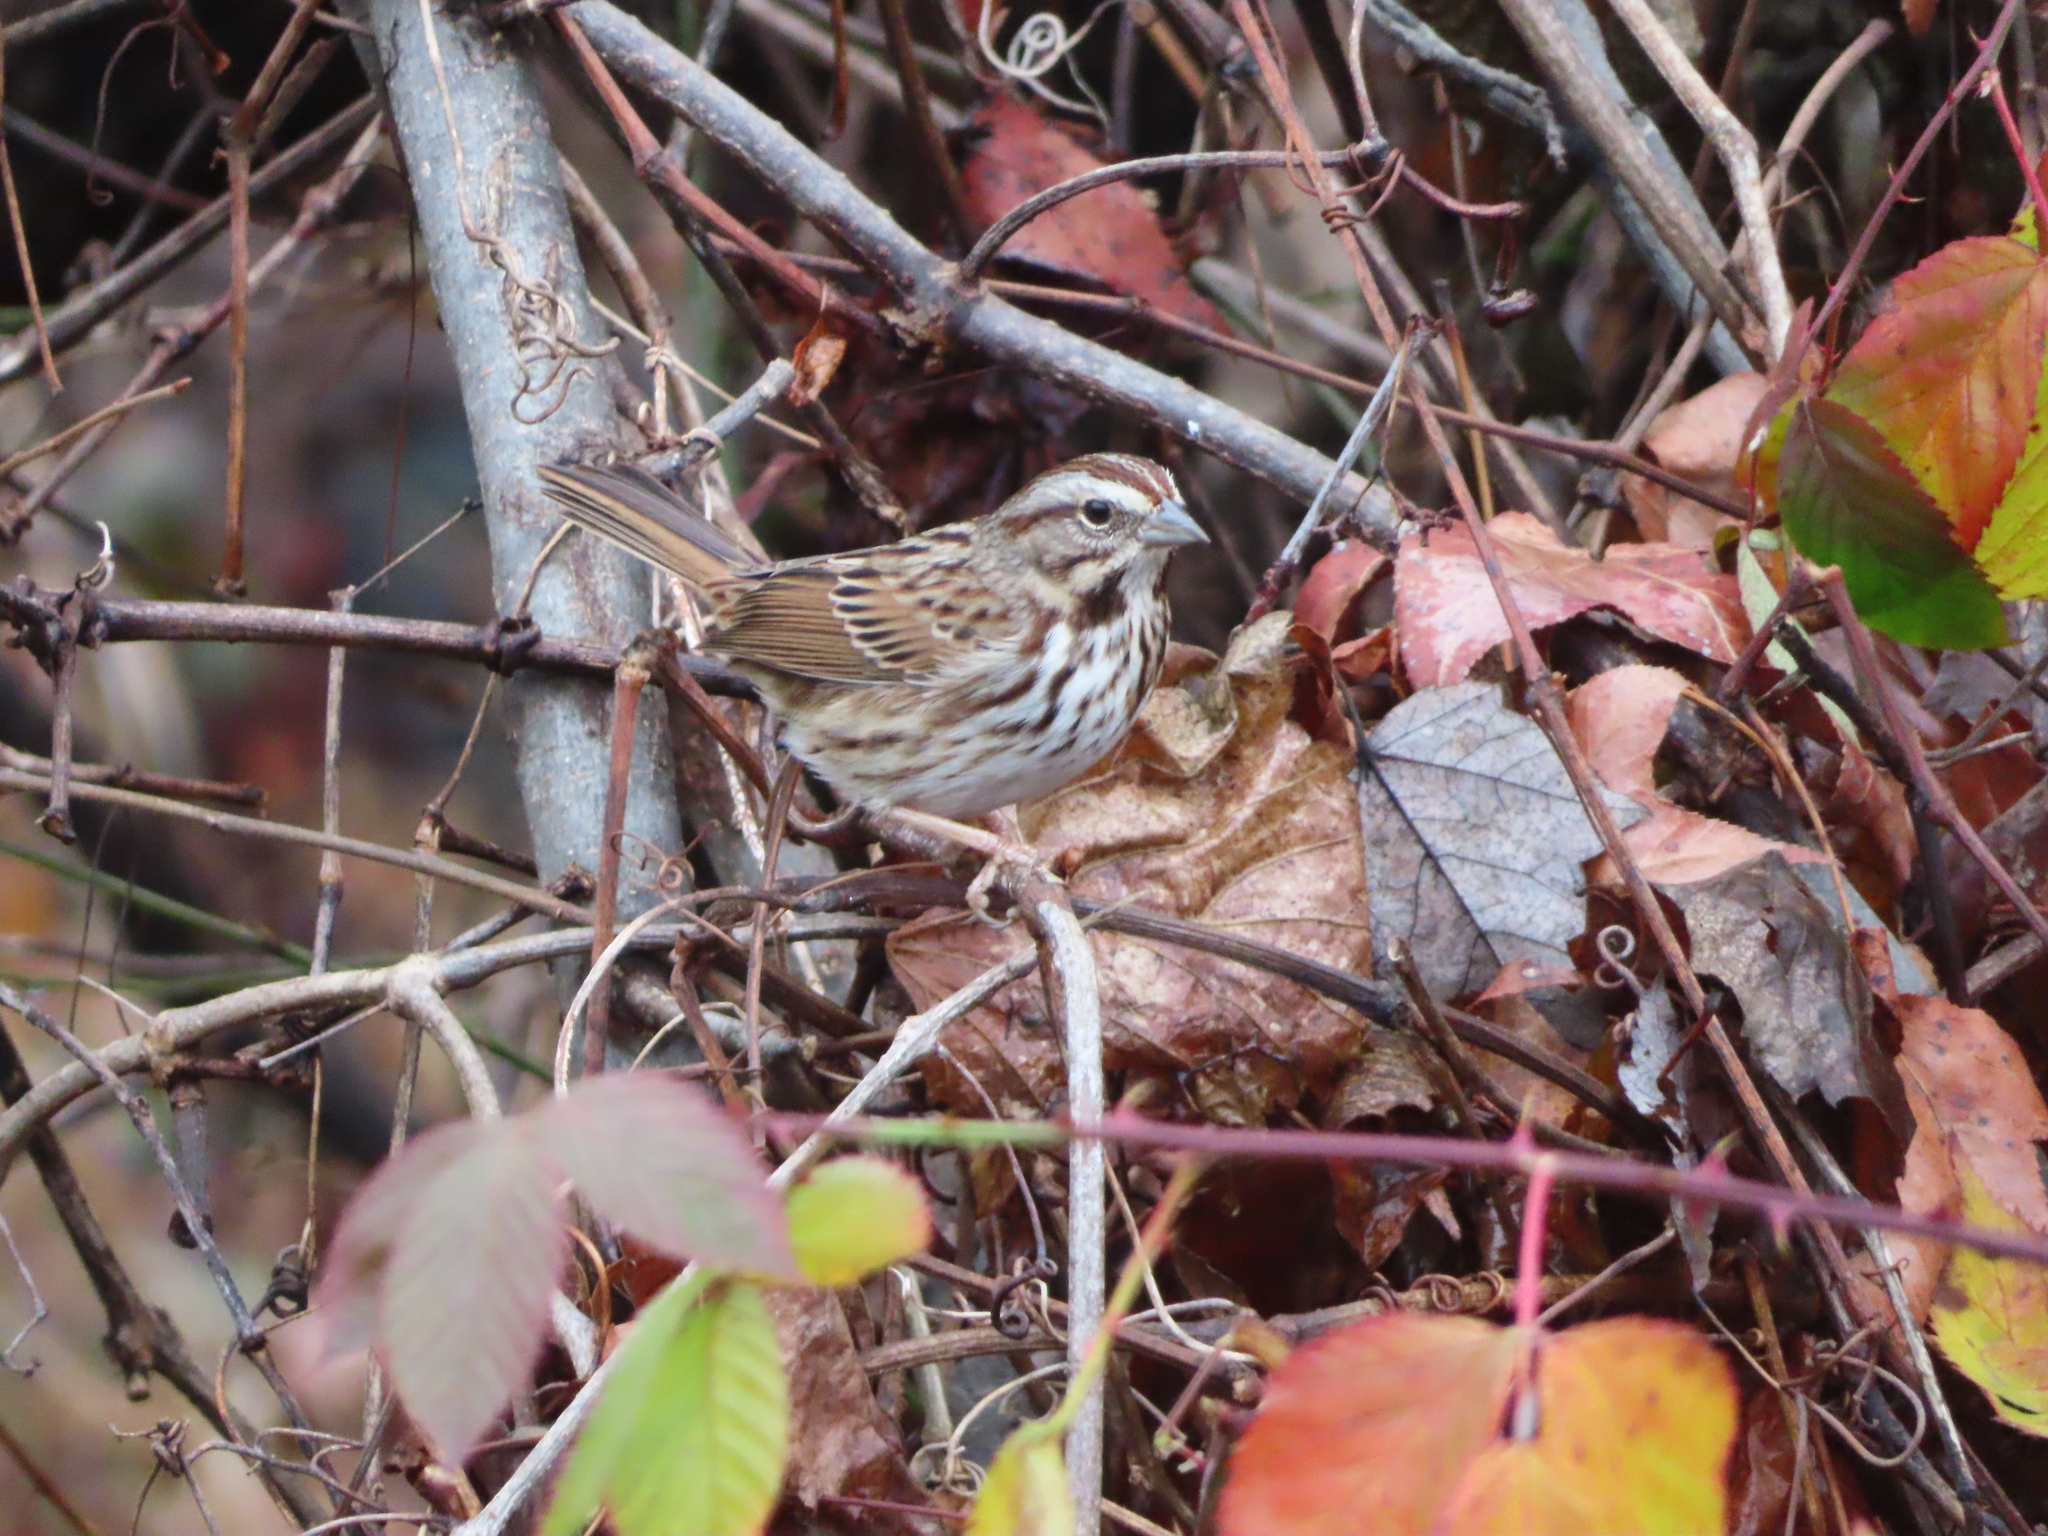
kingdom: Animalia
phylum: Chordata
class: Aves
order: Passeriformes
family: Passerellidae
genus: Melospiza
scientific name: Melospiza melodia
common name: Song sparrow
